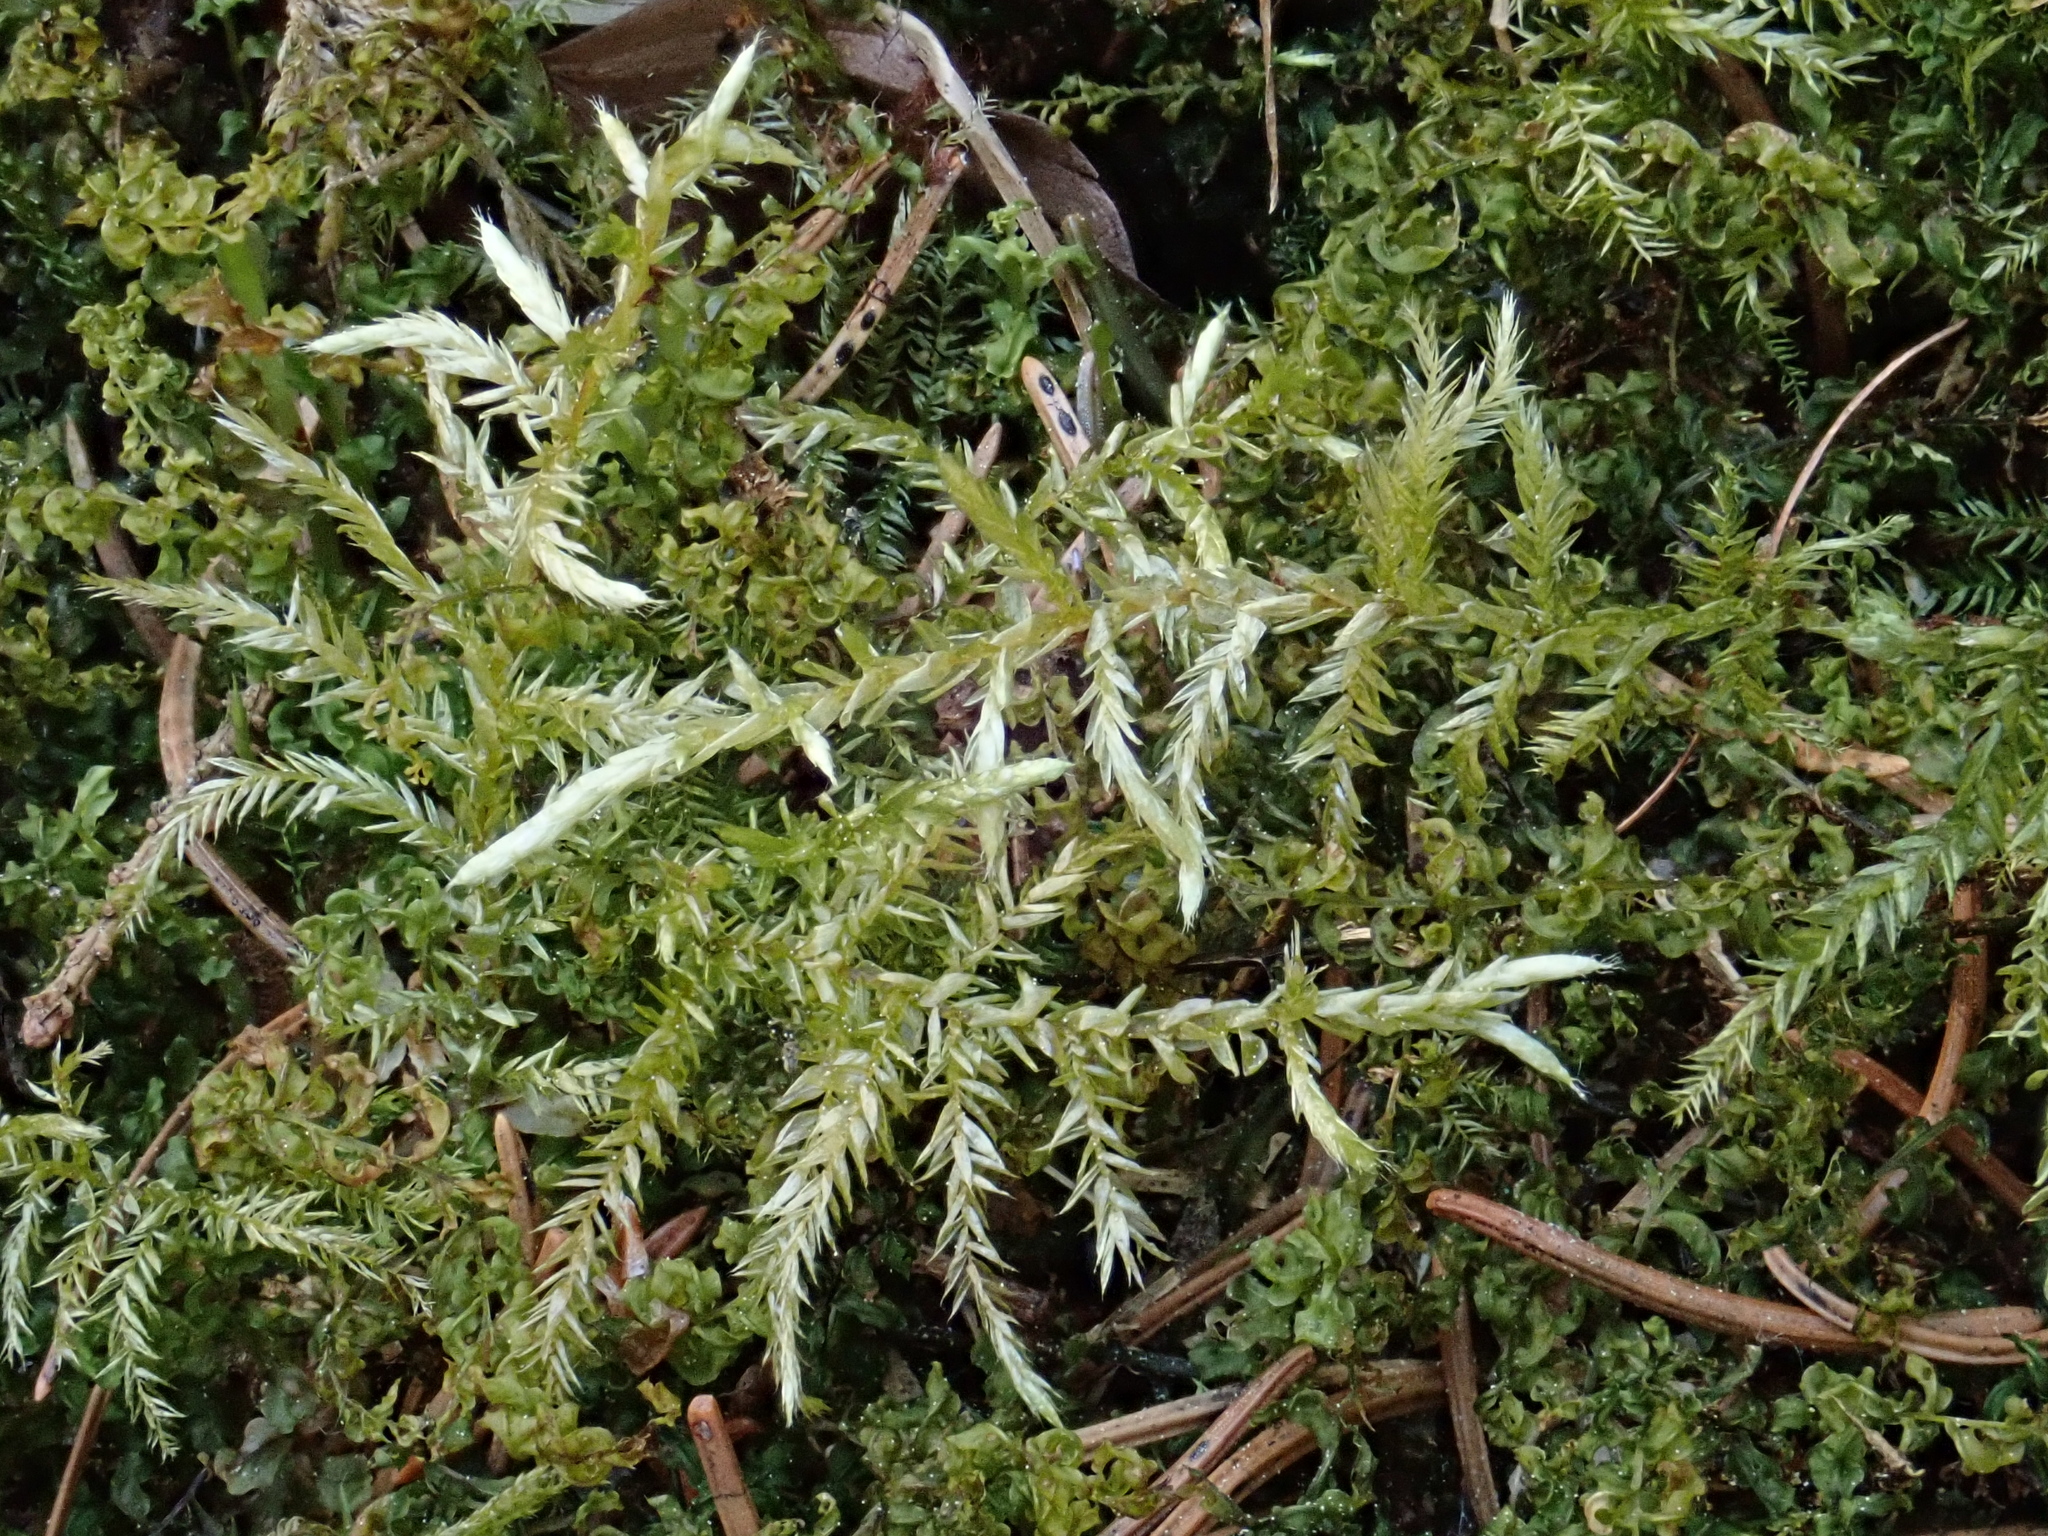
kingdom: Plantae
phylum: Bryophyta
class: Bryopsida
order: Hypnales
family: Brachytheciaceae
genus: Cirriphyllum
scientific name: Cirriphyllum piliferum
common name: Hair-pointed moss
